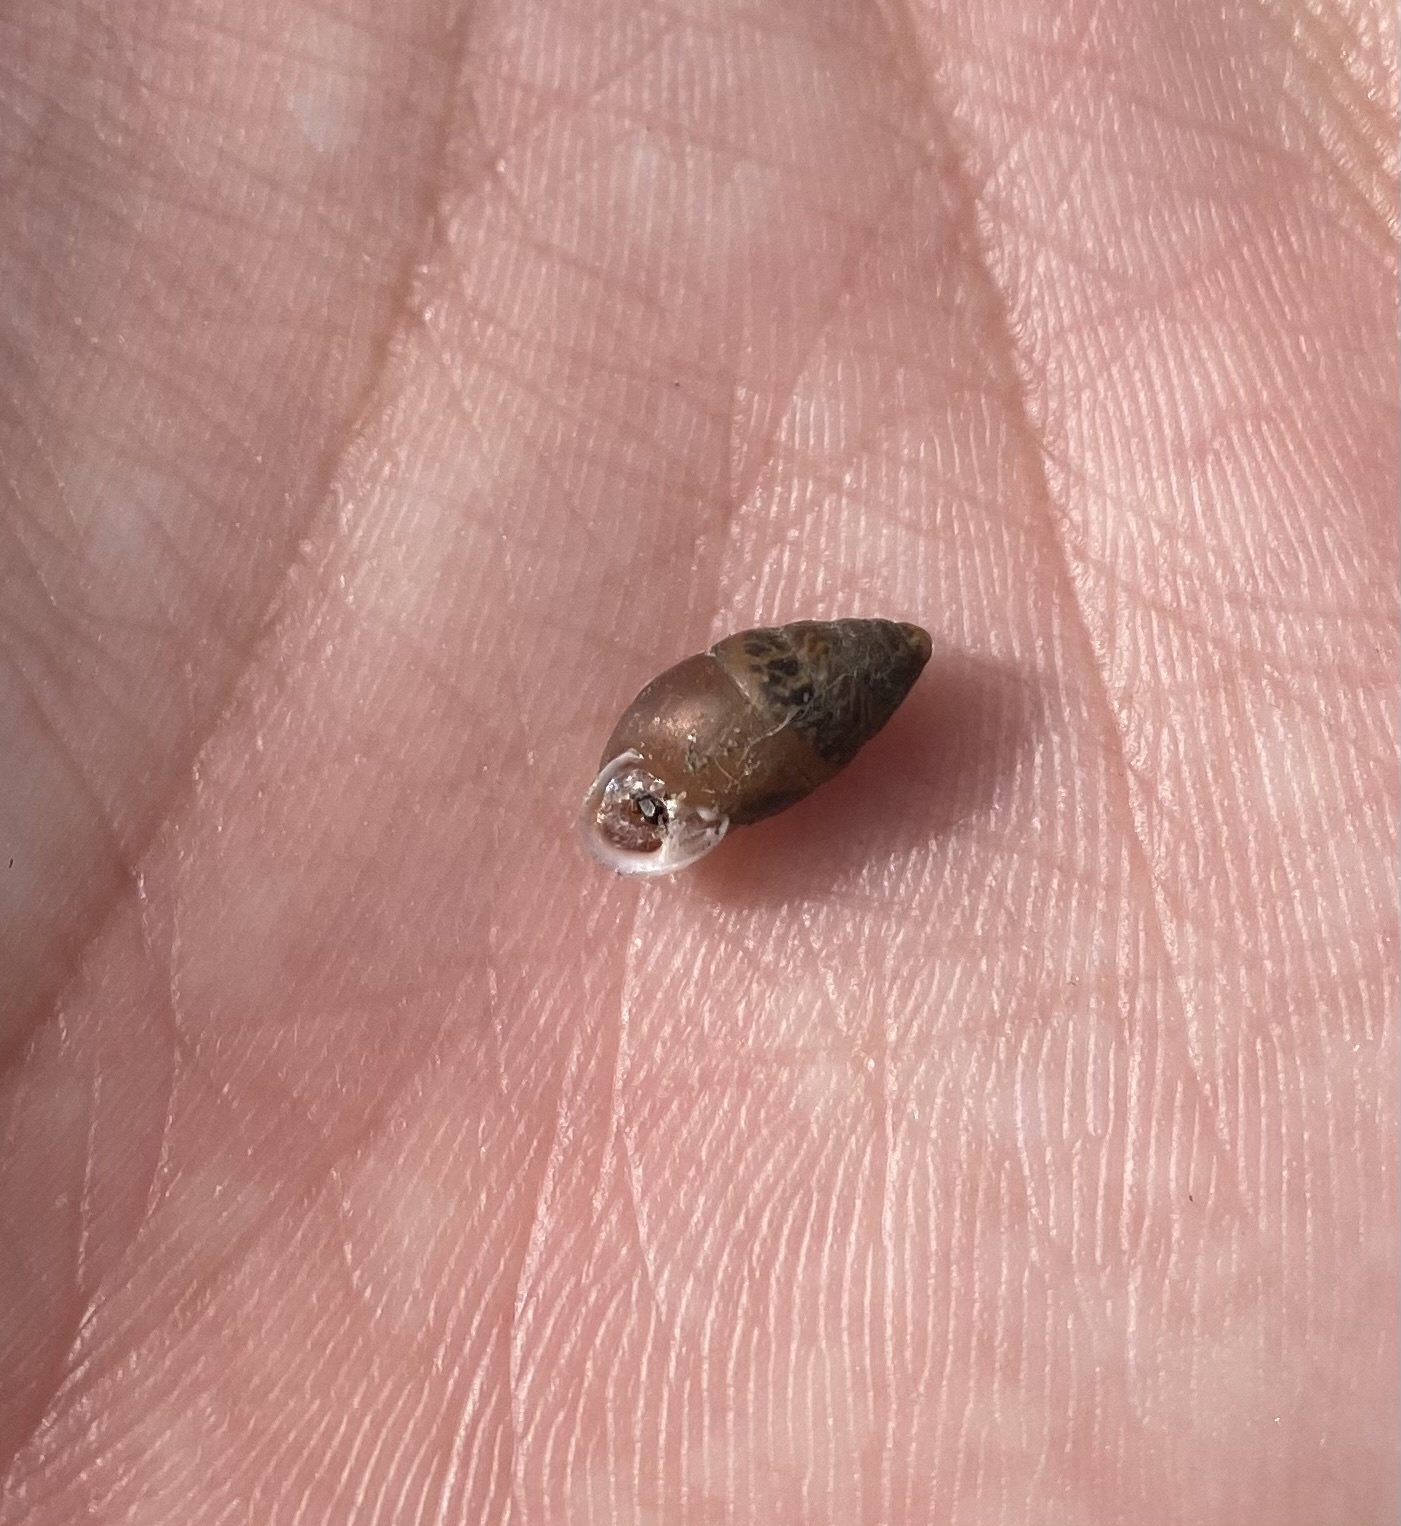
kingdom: Animalia
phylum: Mollusca
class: Gastropoda
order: Stylommatophora
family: Enidae
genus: Chondrula
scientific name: Chondrula tridens
